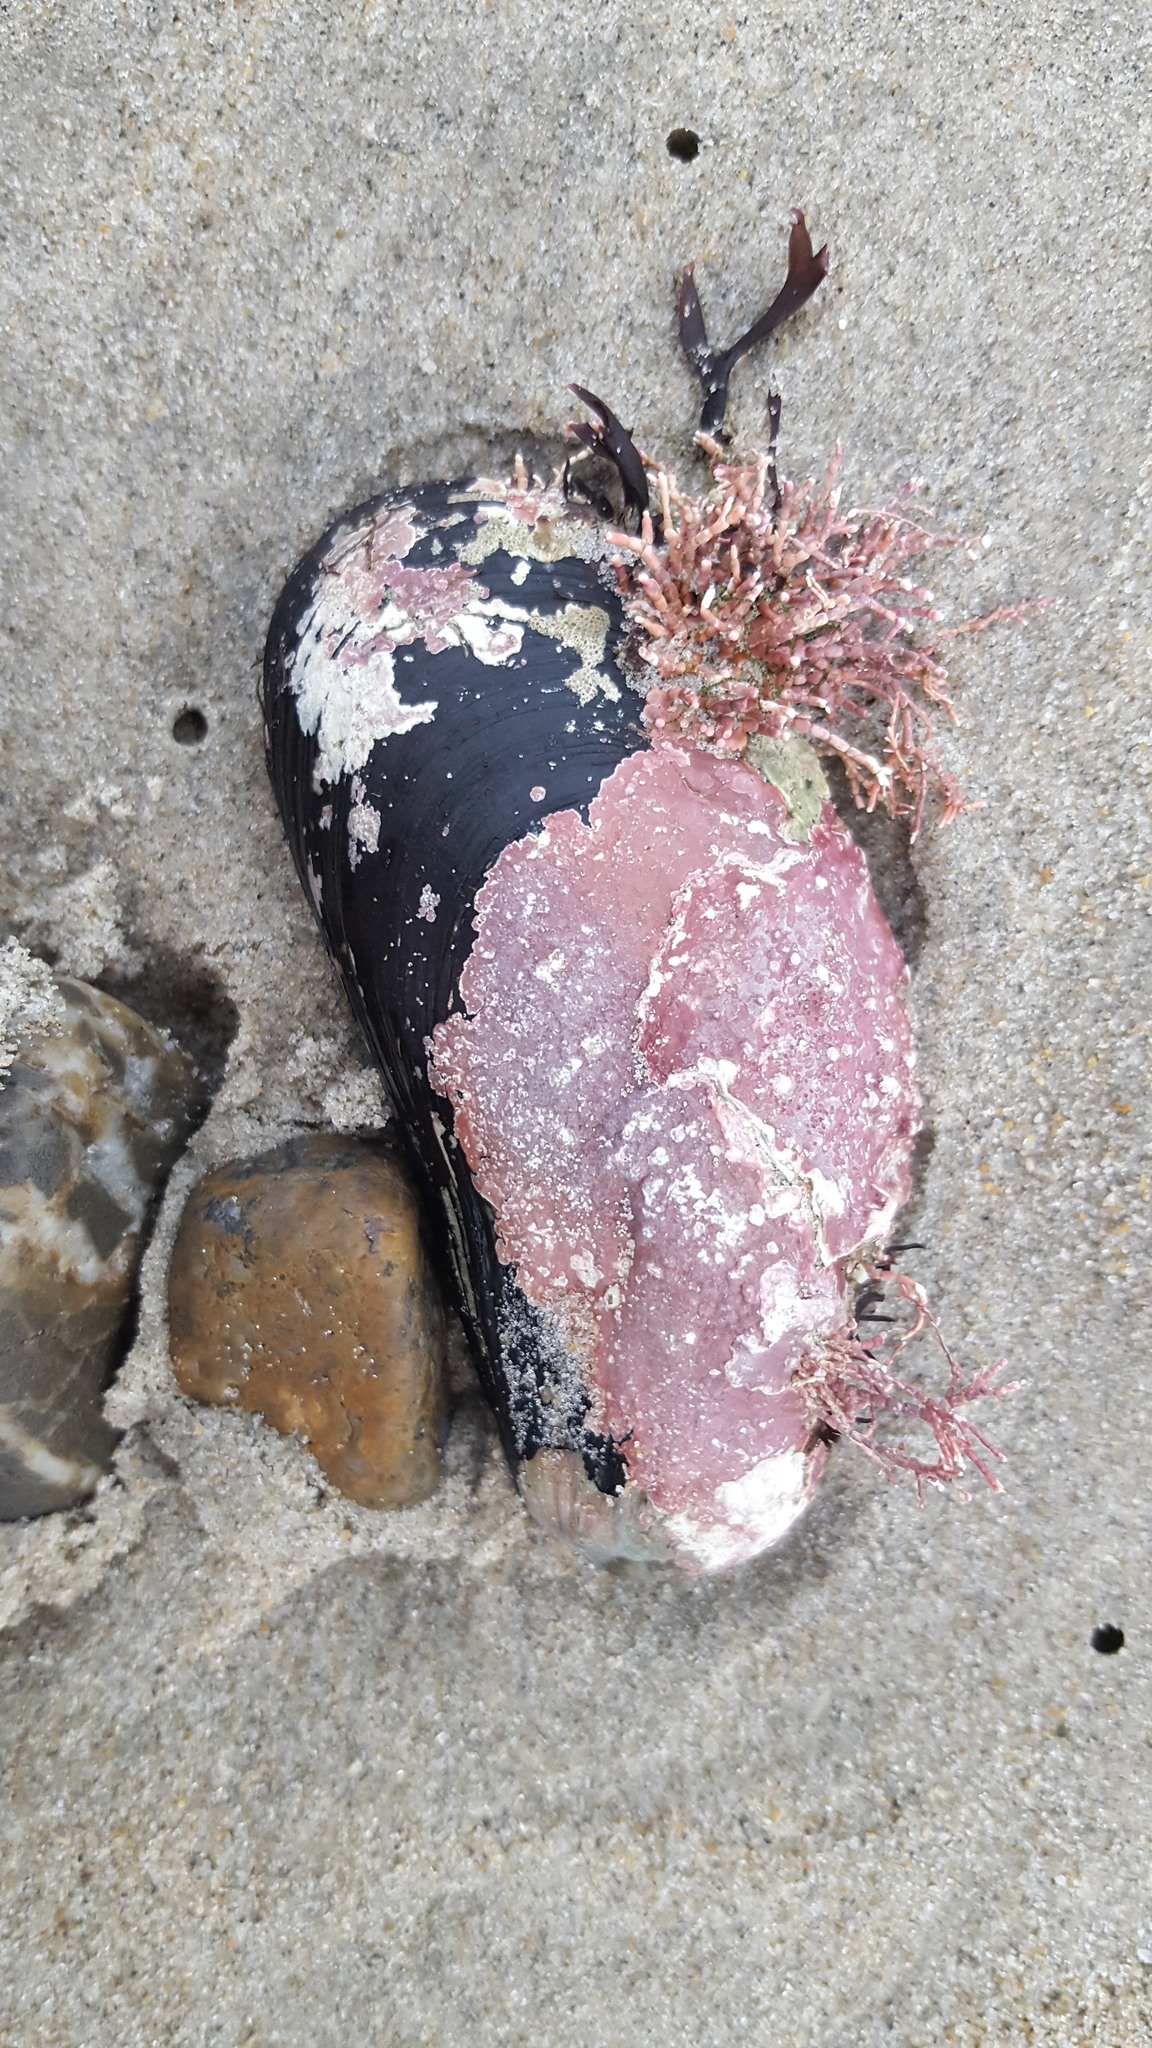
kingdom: Animalia
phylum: Mollusca
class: Bivalvia
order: Mytilida
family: Mytilidae
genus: Modiolus
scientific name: Modiolus modiolus
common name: Horse-mussel
